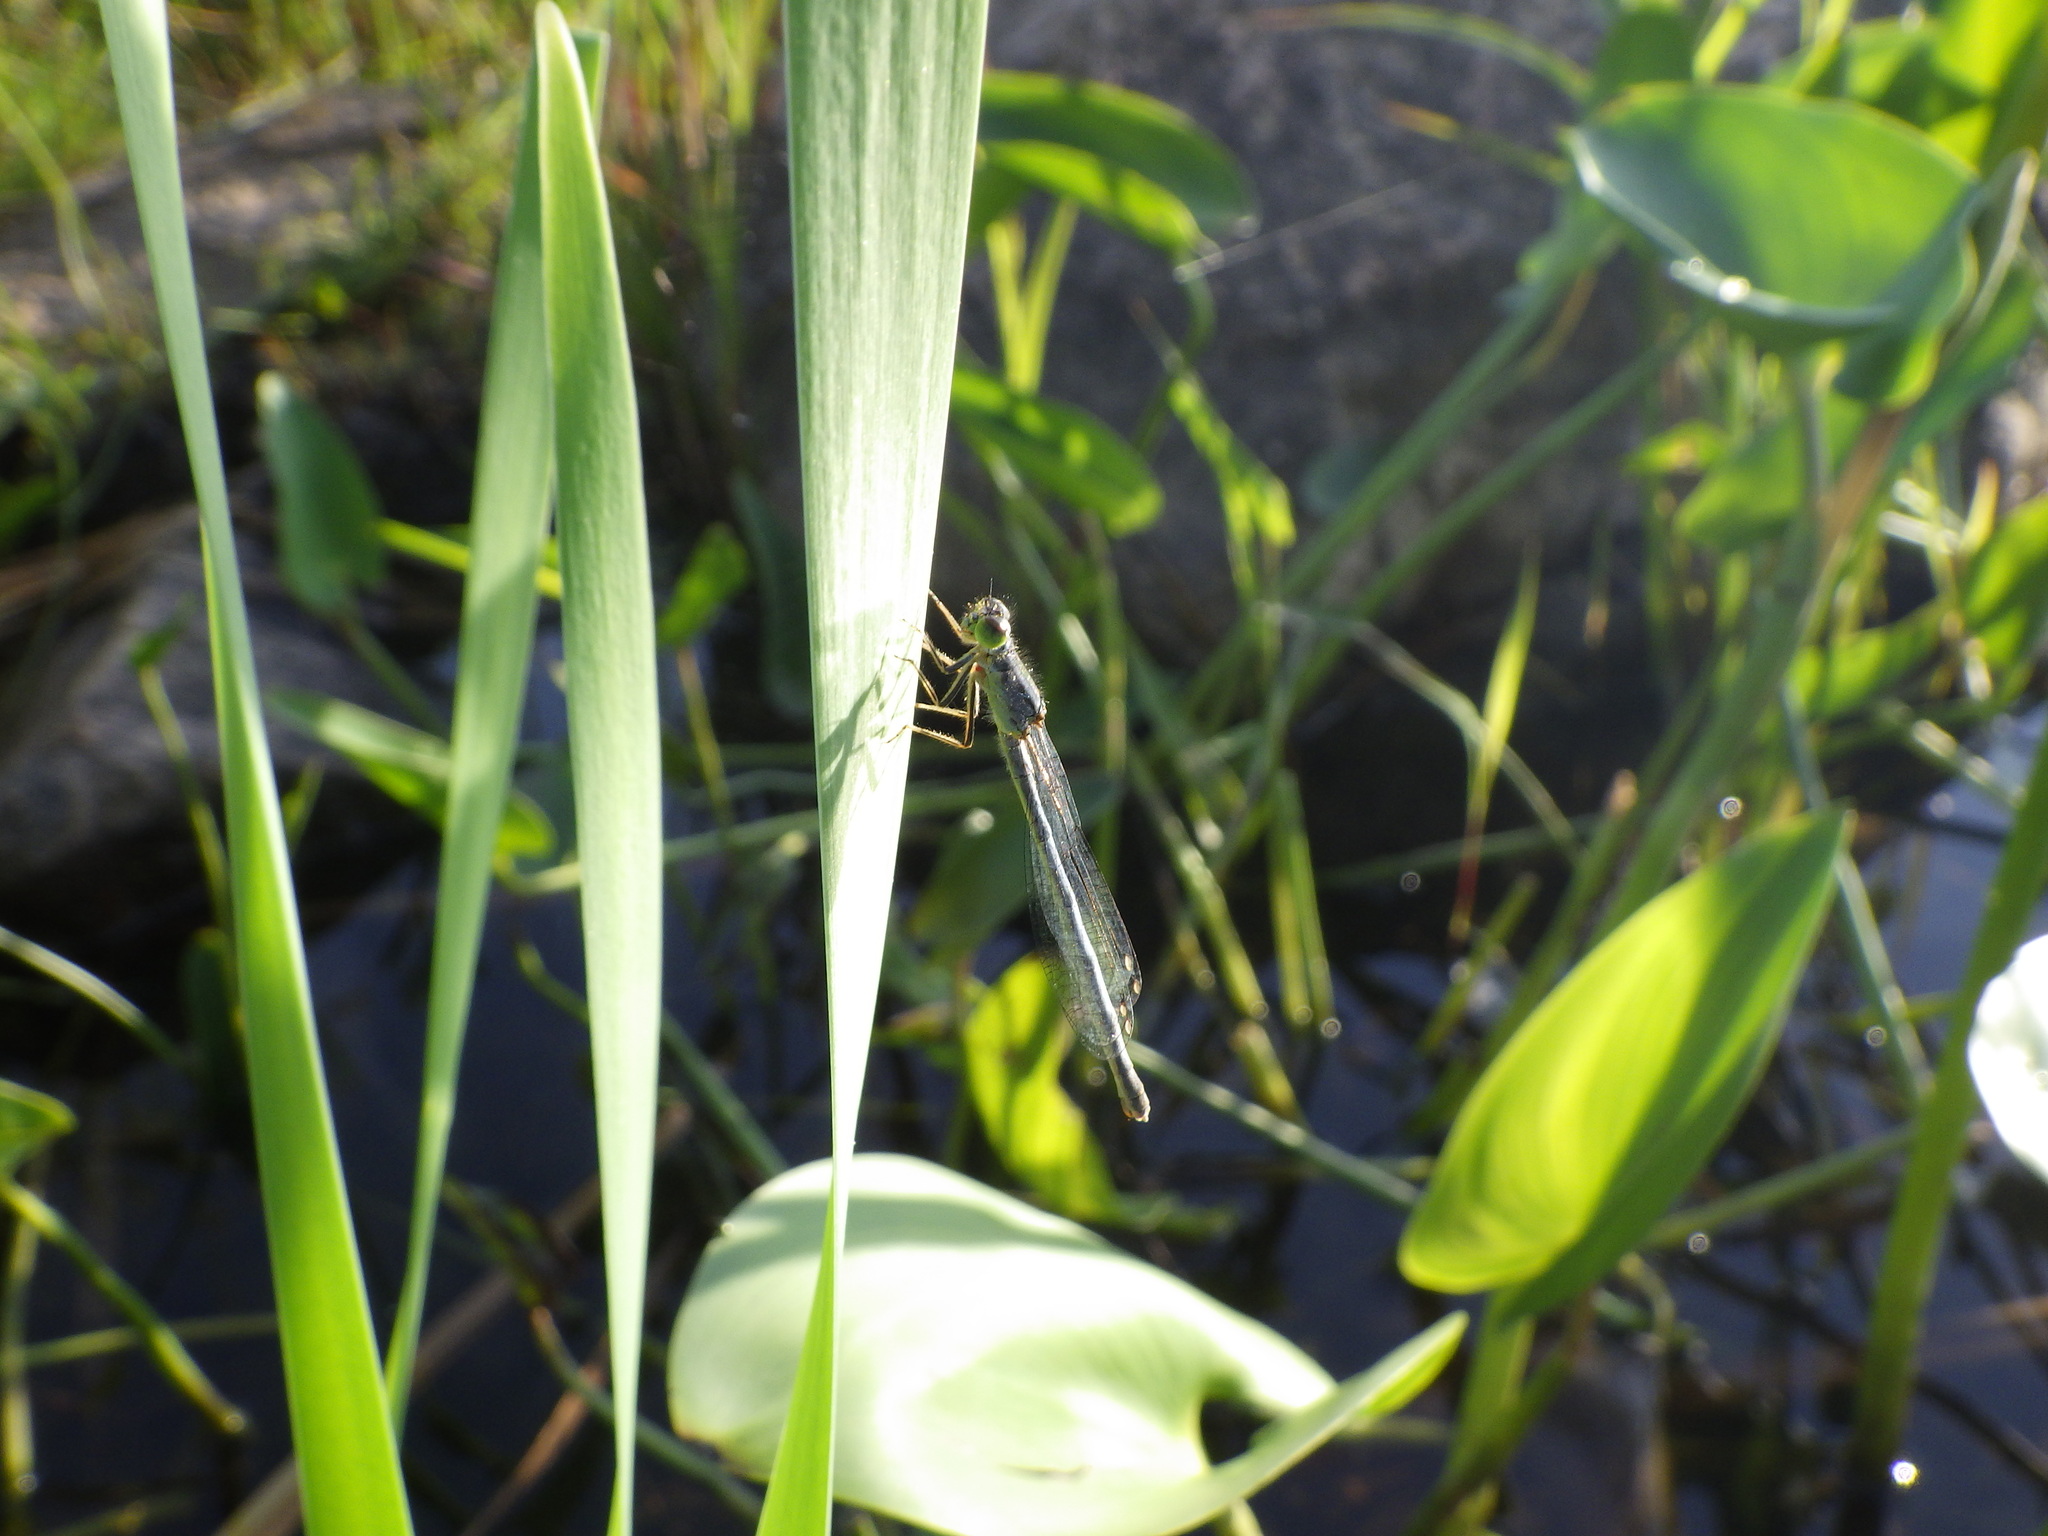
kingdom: Animalia
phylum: Arthropoda
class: Insecta
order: Odonata
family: Coenagrionidae
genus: Ischnura
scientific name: Ischnura verticalis
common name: Eastern forktail
